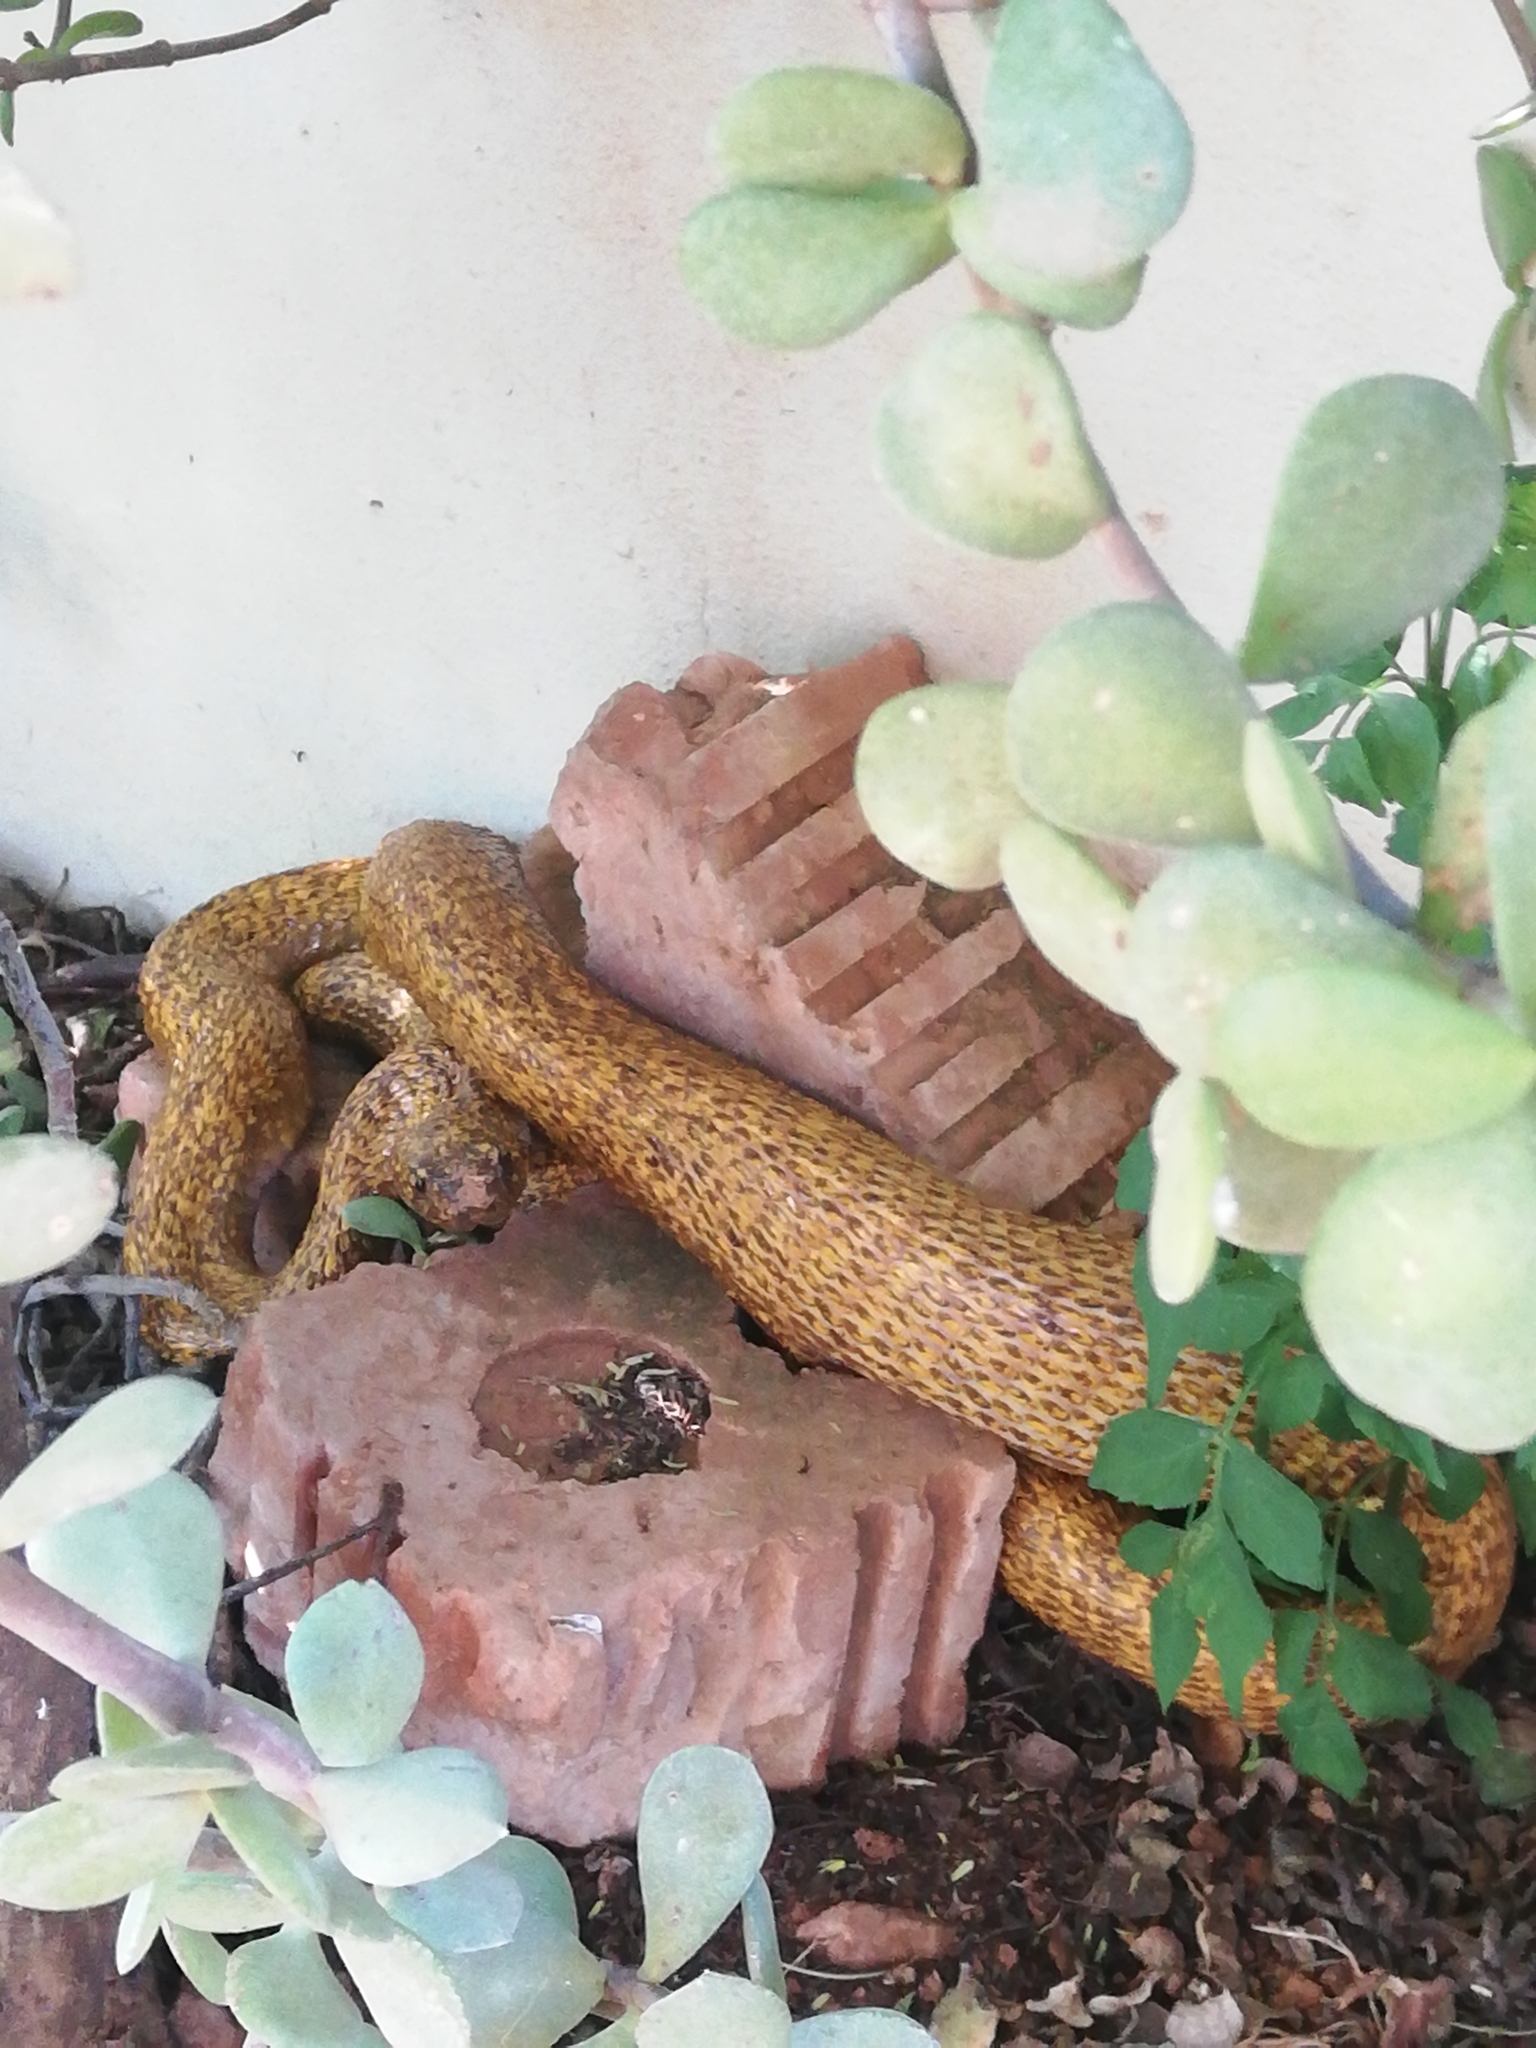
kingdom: Animalia
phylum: Chordata
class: Squamata
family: Elapidae
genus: Naja
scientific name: Naja nivea
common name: Cape cobra
